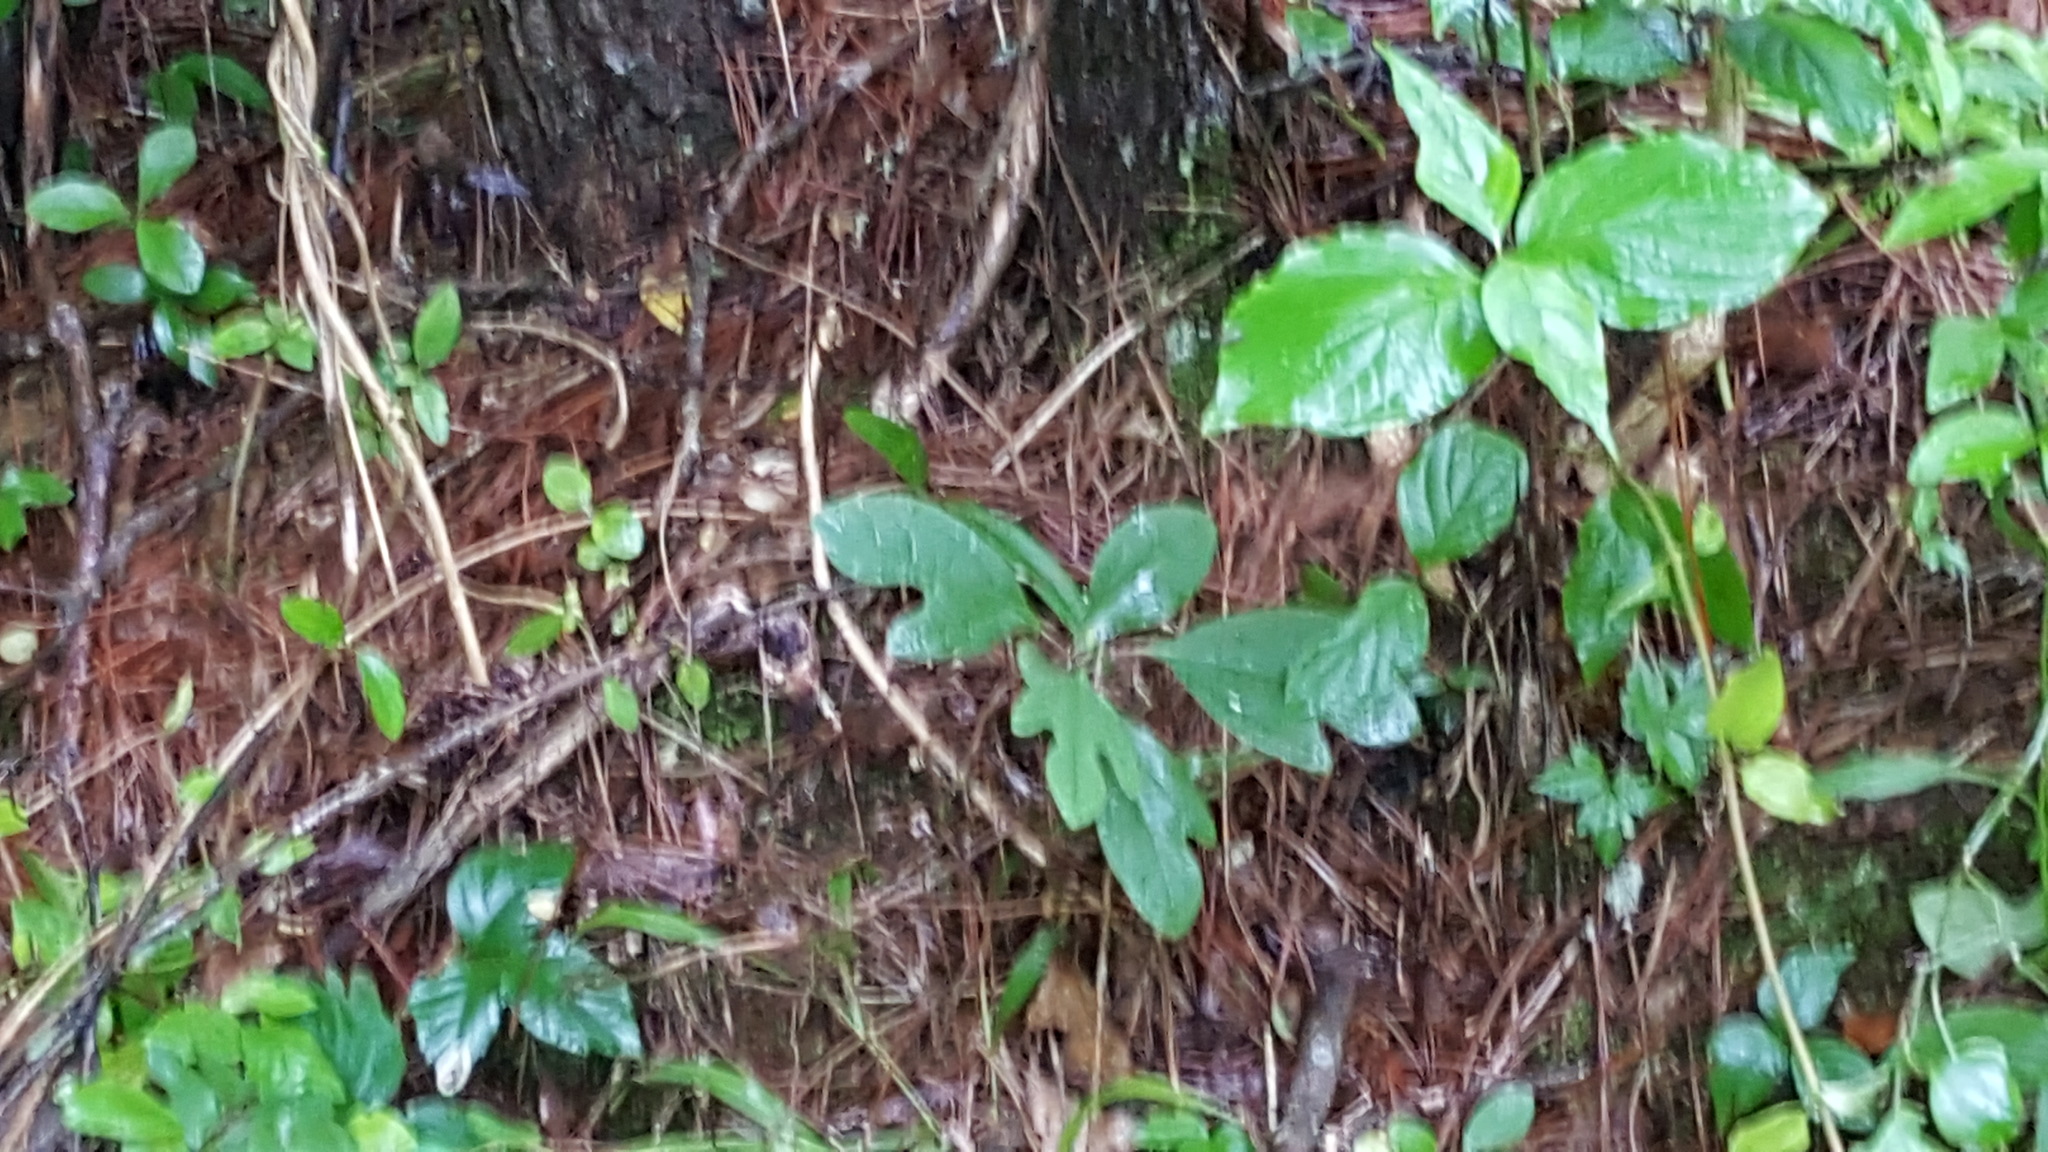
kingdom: Plantae
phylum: Tracheophyta
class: Magnoliopsida
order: Laurales
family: Lauraceae
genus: Sassafras
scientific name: Sassafras albidum
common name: Sassafras
